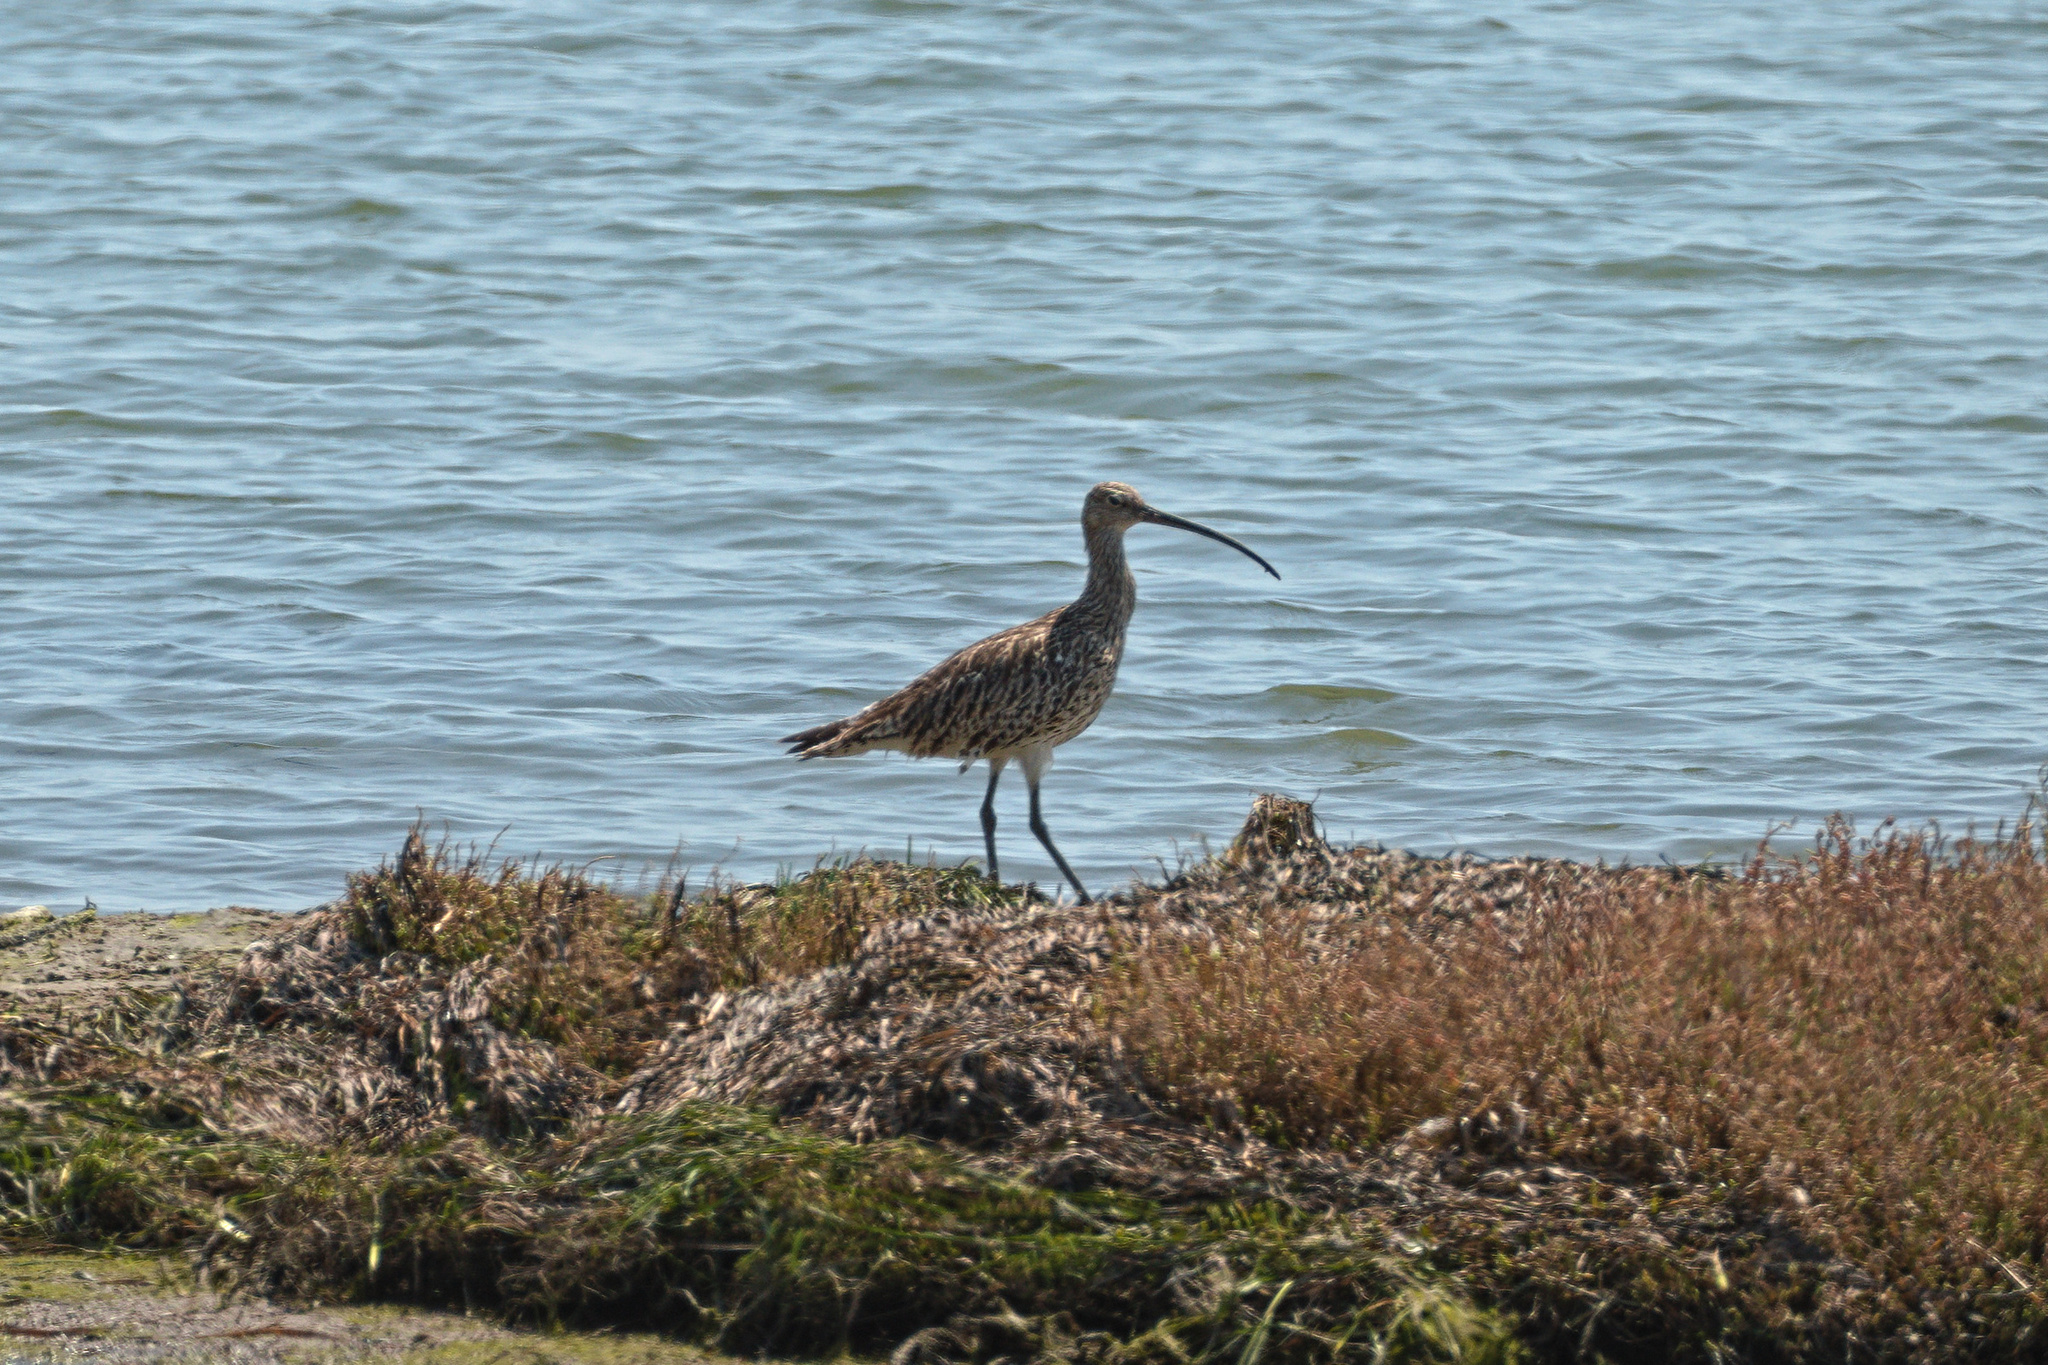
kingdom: Animalia
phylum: Chordata
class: Aves
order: Charadriiformes
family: Scolopacidae
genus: Numenius
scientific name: Numenius arquata
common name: Eurasian curlew
